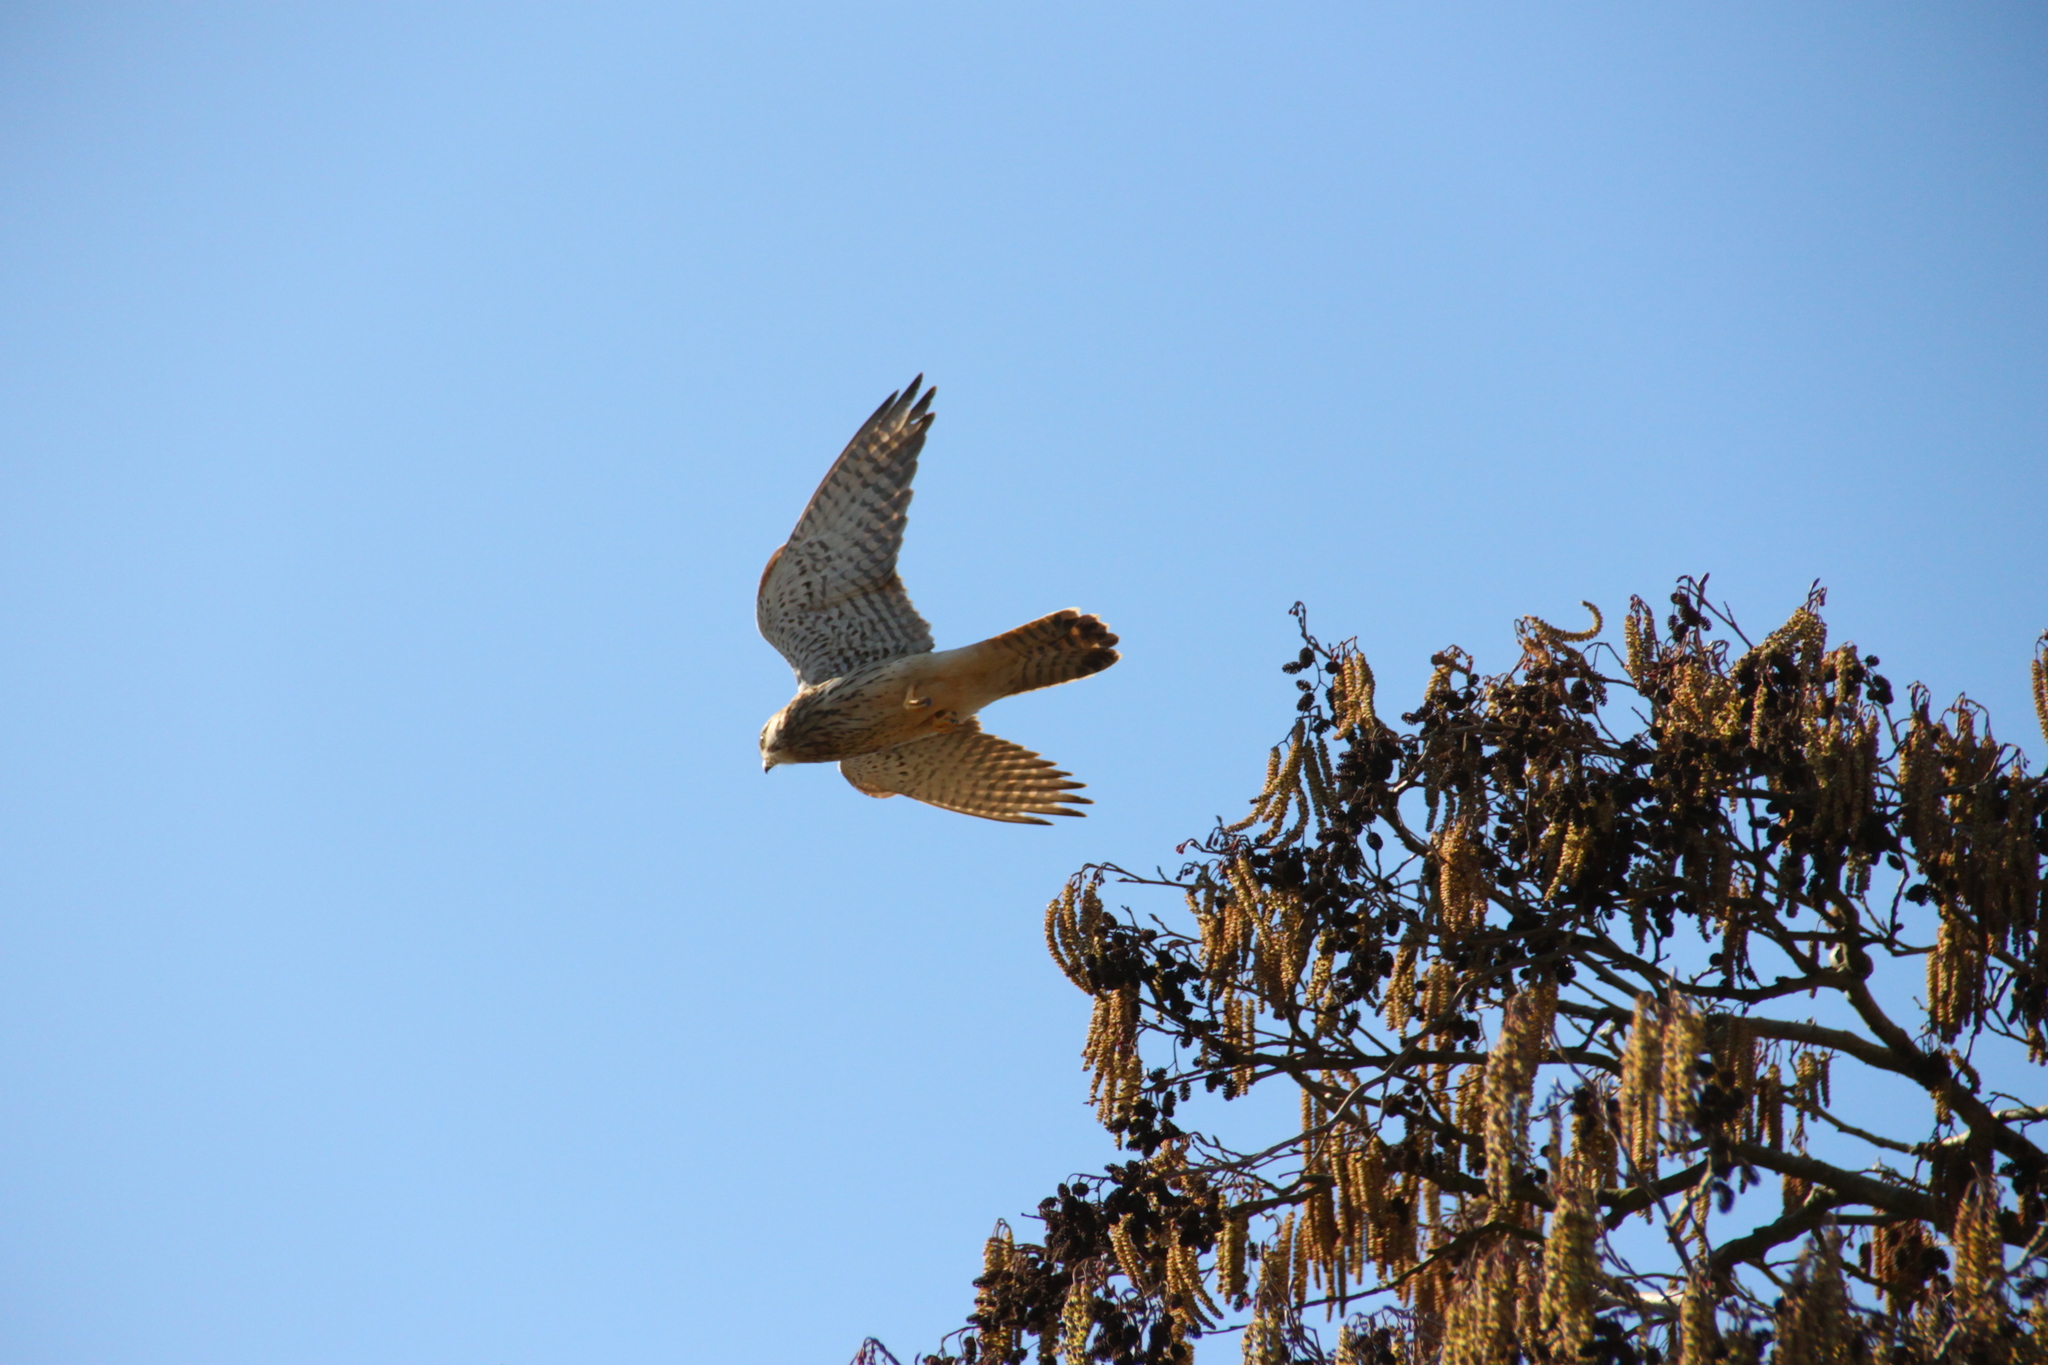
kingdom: Animalia
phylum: Chordata
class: Aves
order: Falconiformes
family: Falconidae
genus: Falco
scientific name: Falco tinnunculus
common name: Common kestrel
